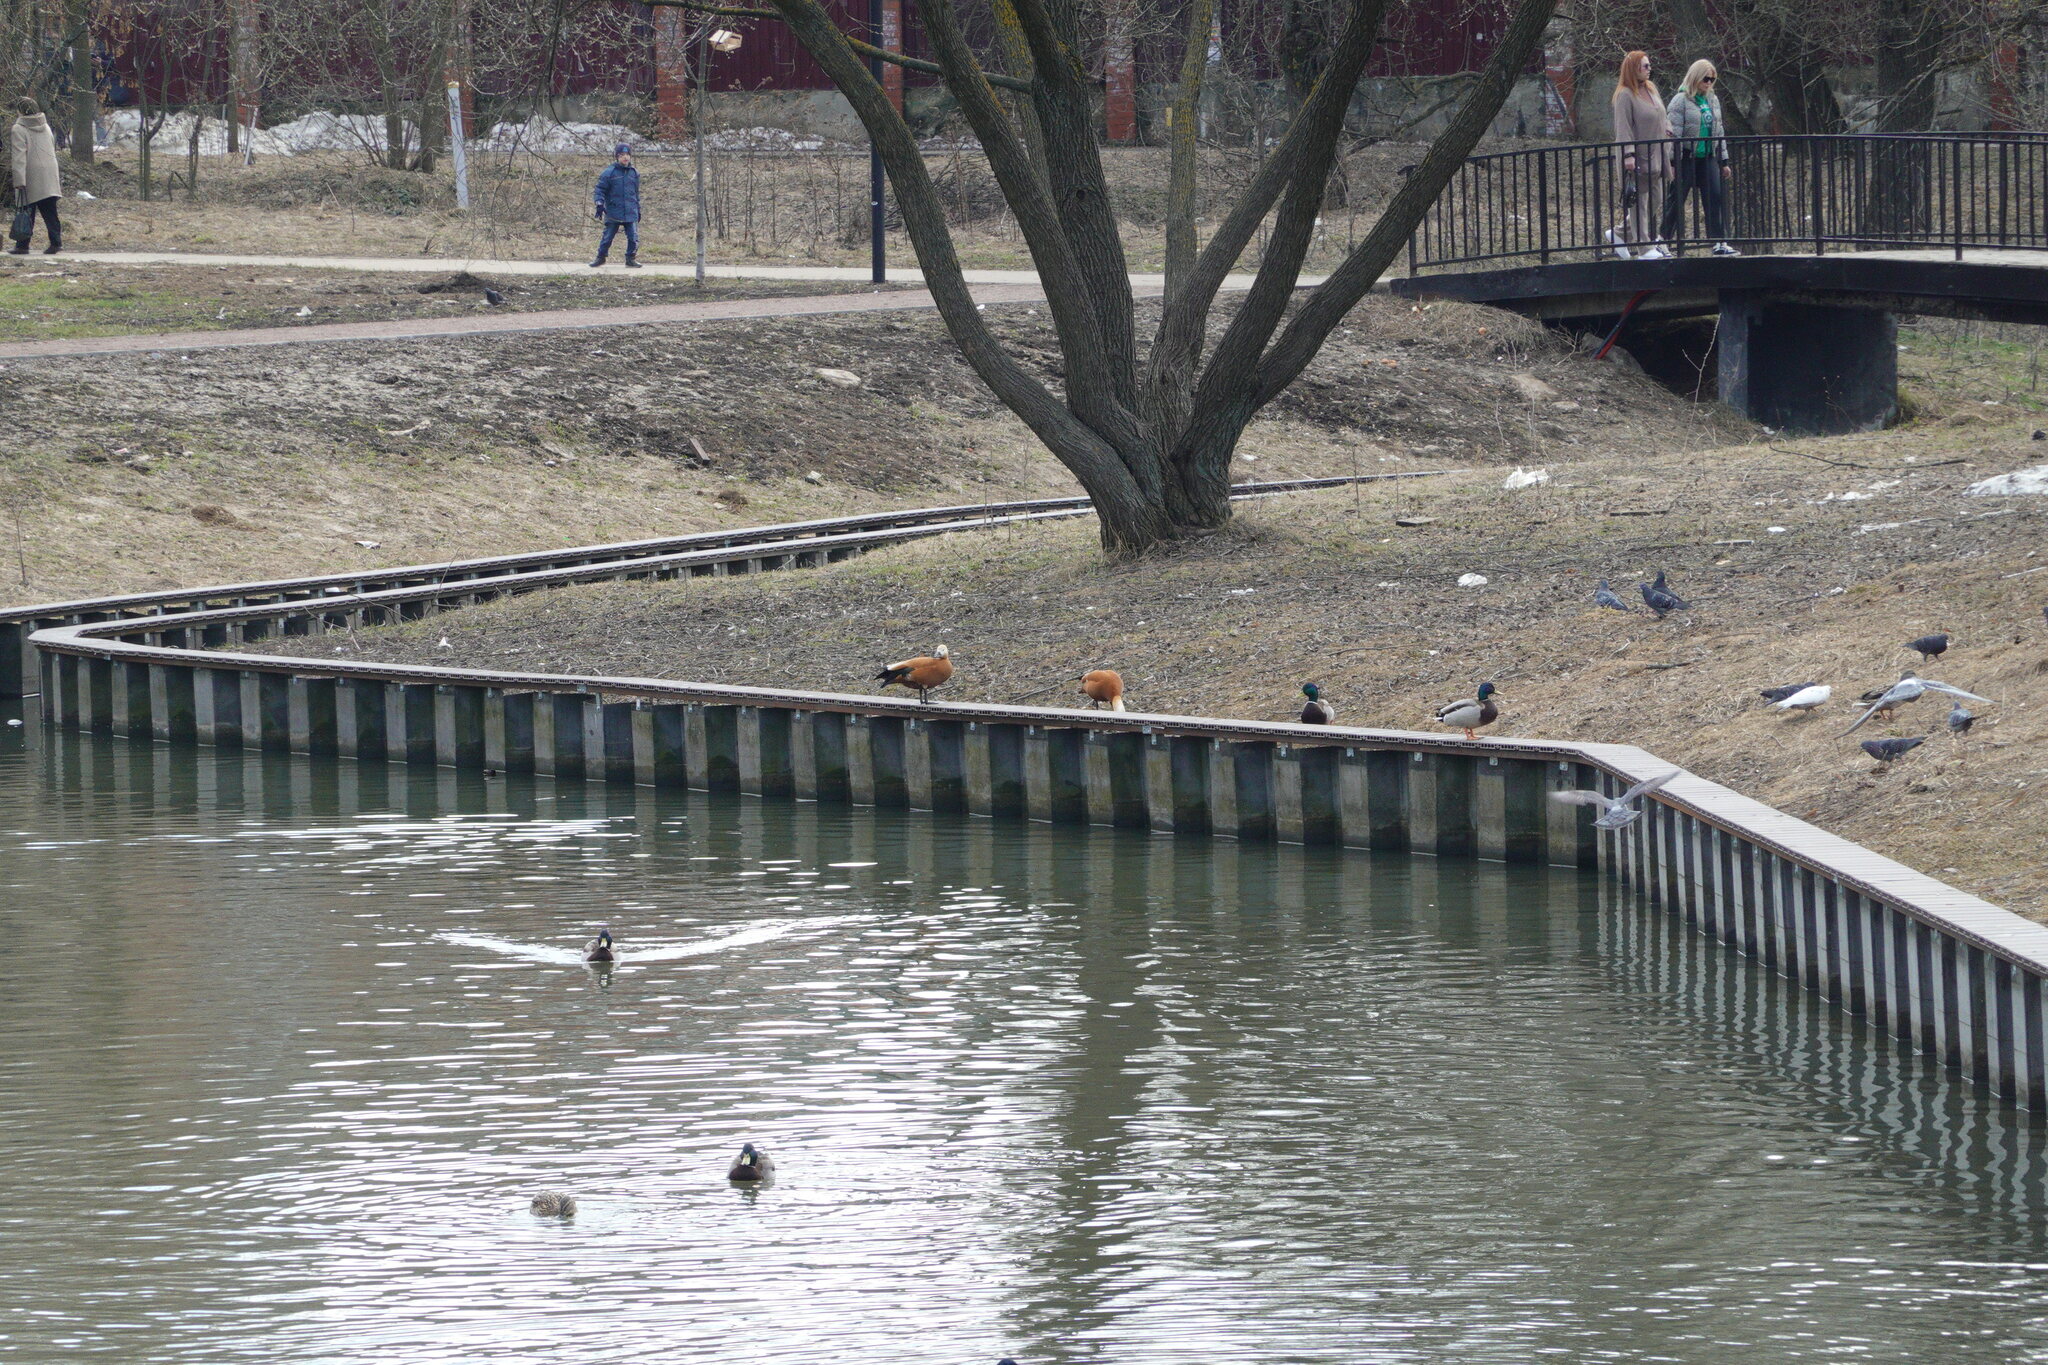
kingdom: Animalia
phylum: Chordata
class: Aves
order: Anseriformes
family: Anatidae
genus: Tadorna
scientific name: Tadorna ferruginea
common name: Ruddy shelduck
